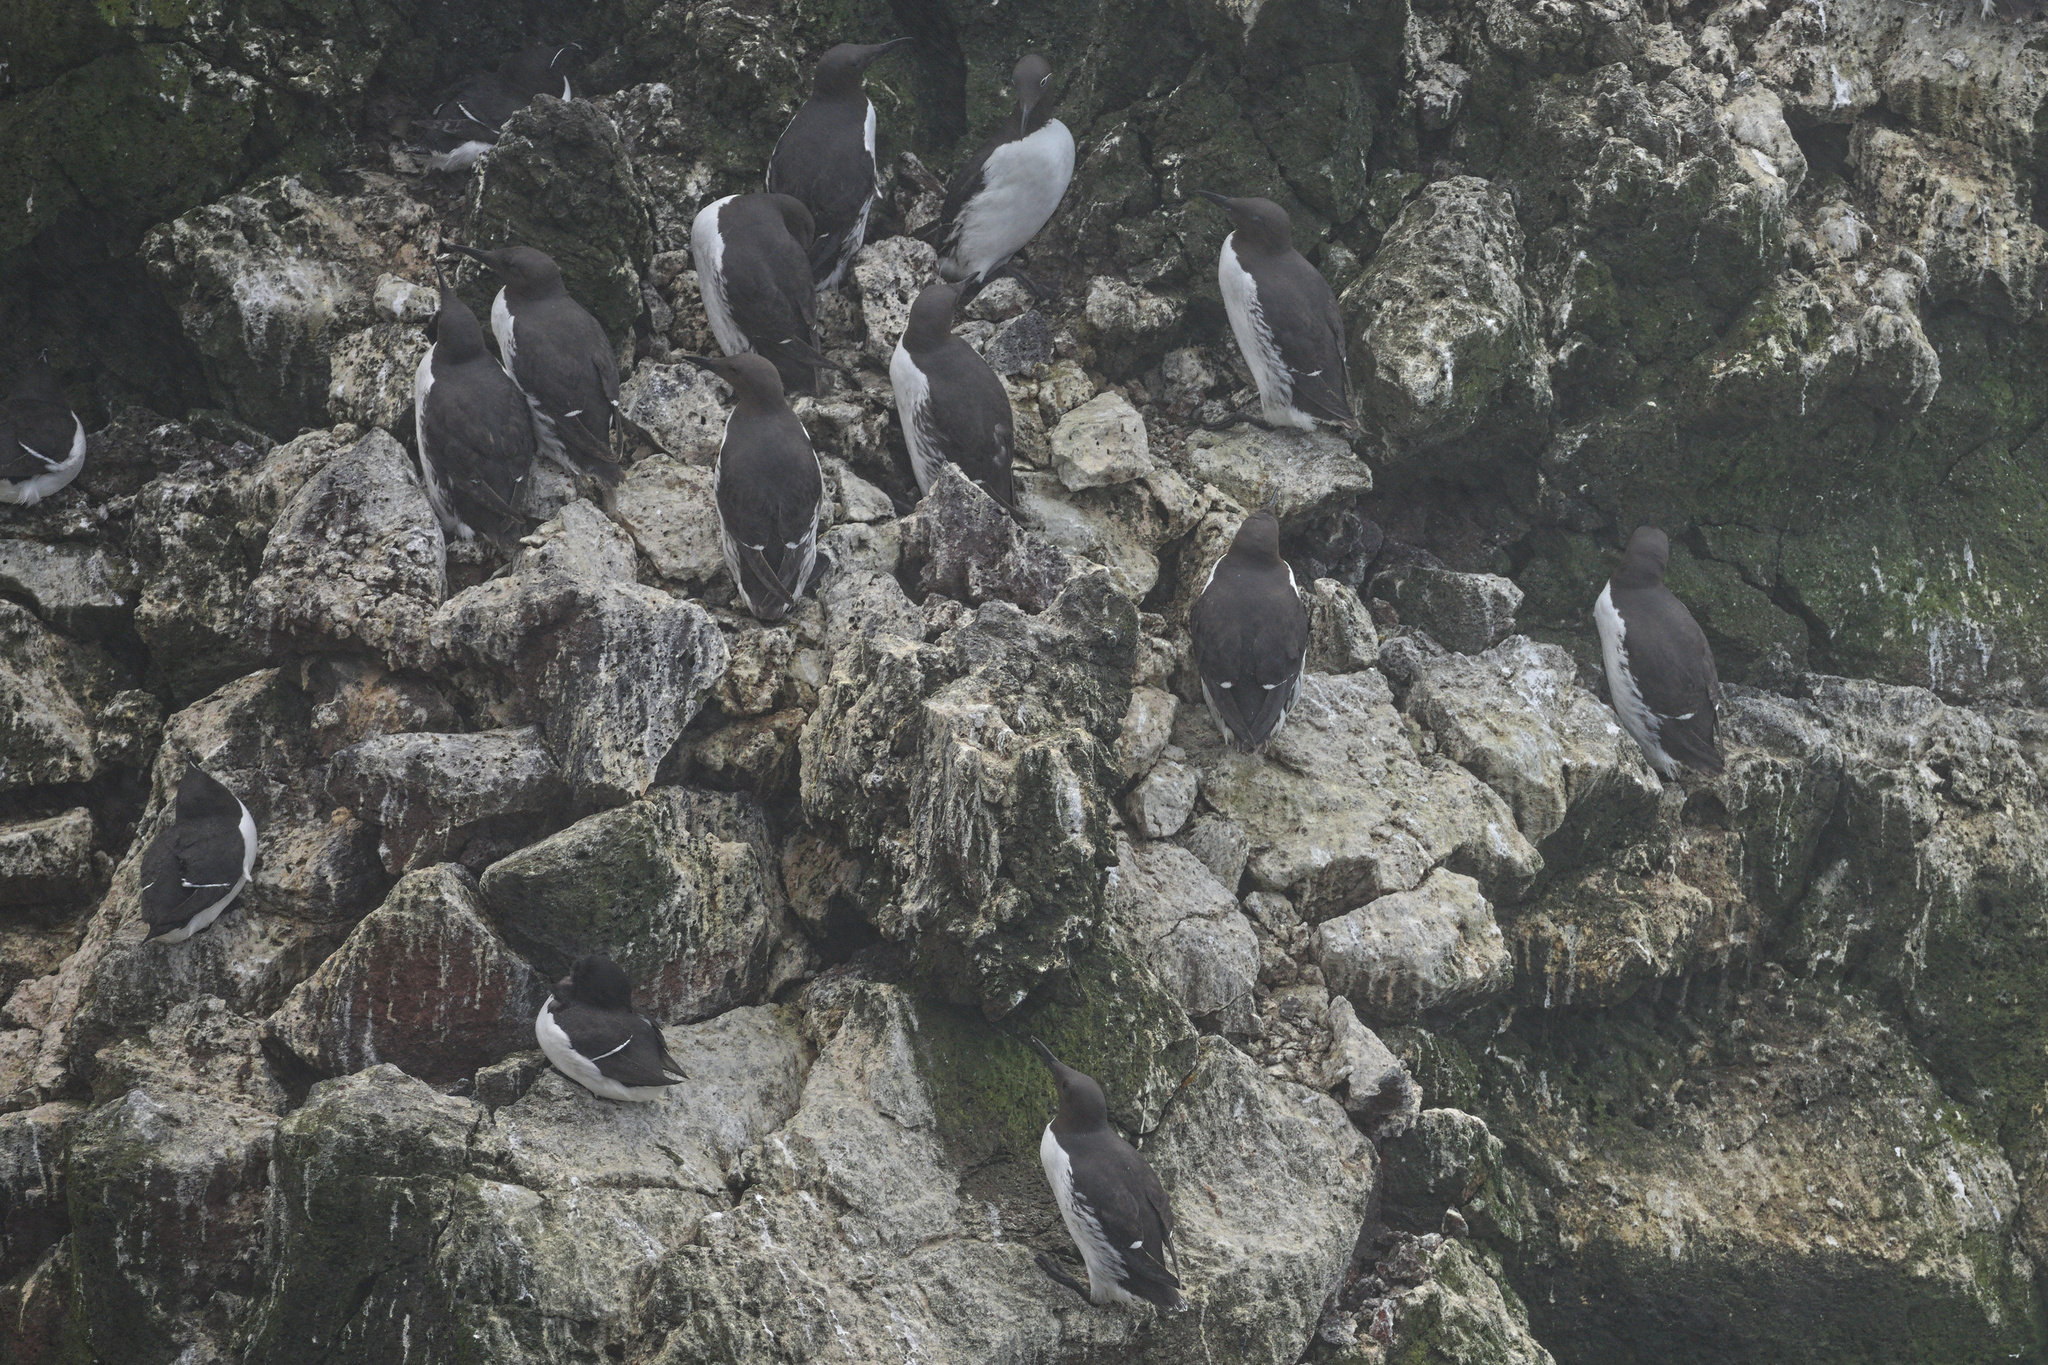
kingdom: Animalia
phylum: Chordata
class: Aves
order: Charadriiformes
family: Alcidae
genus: Alca
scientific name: Alca torda
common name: Razorbill
